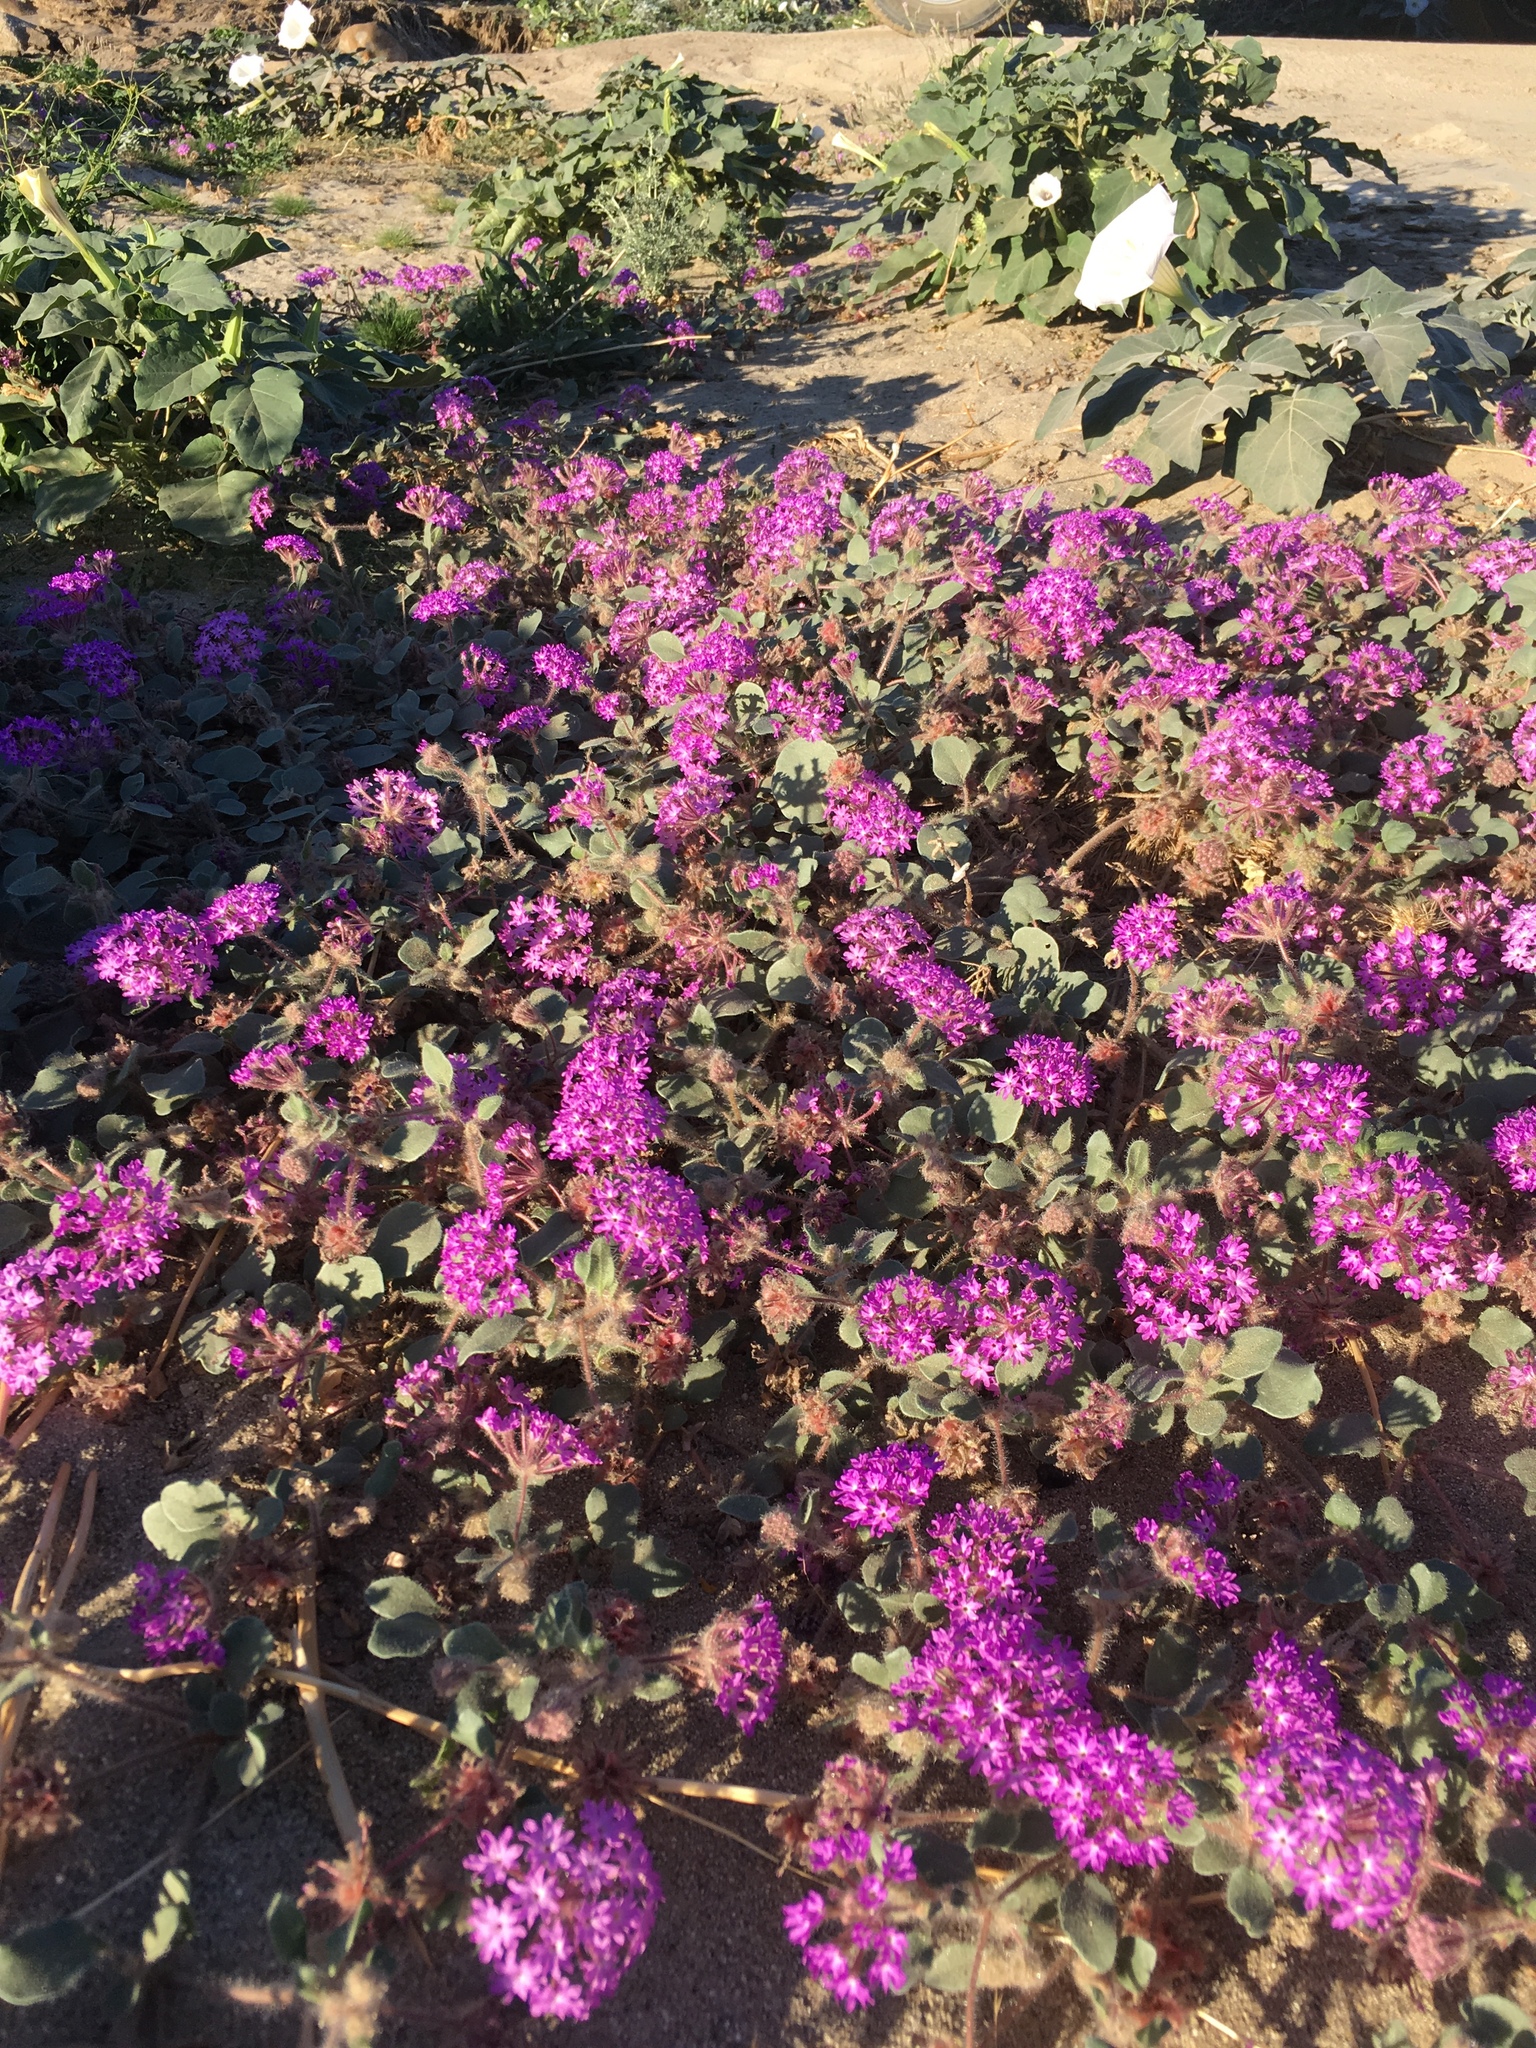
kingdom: Plantae
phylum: Tracheophyta
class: Magnoliopsida
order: Caryophyllales
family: Nyctaginaceae
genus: Abronia
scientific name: Abronia villosa
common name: Desert sand-verbena
